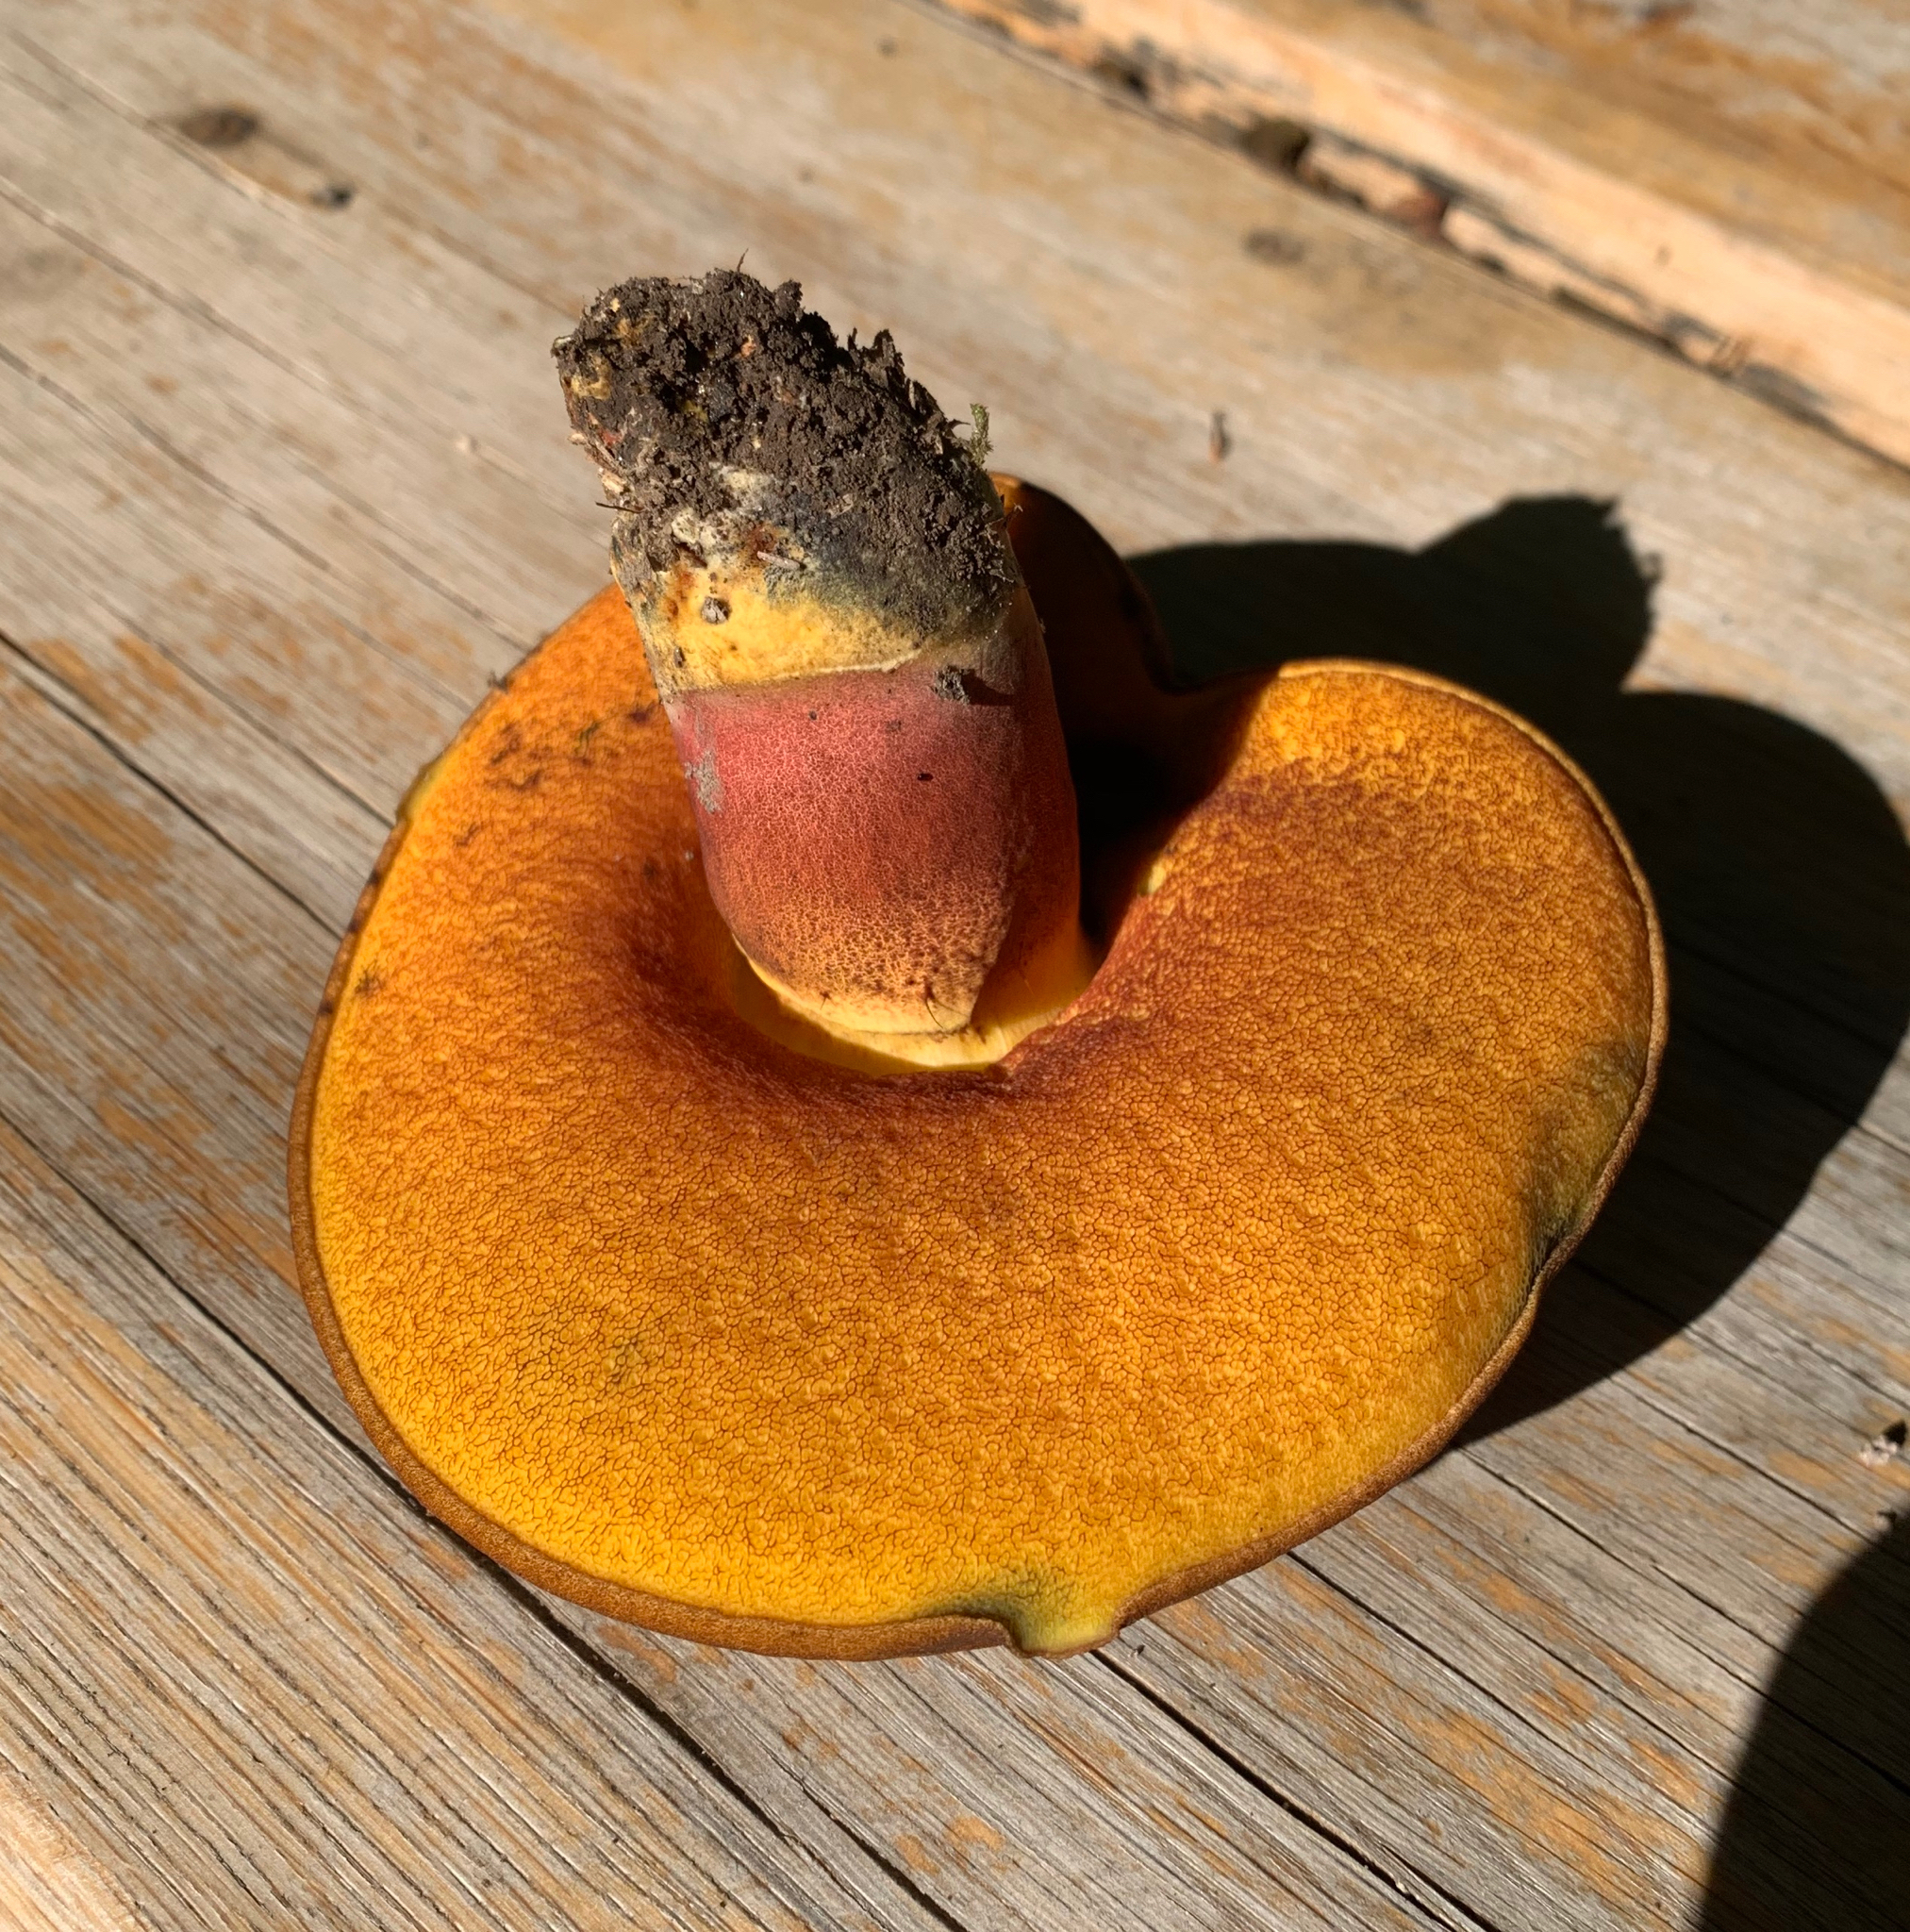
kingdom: Fungi
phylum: Basidiomycota
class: Agaricomycetes
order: Boletales
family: Boletaceae
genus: Neoboletus
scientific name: Neoboletus luridiformis
